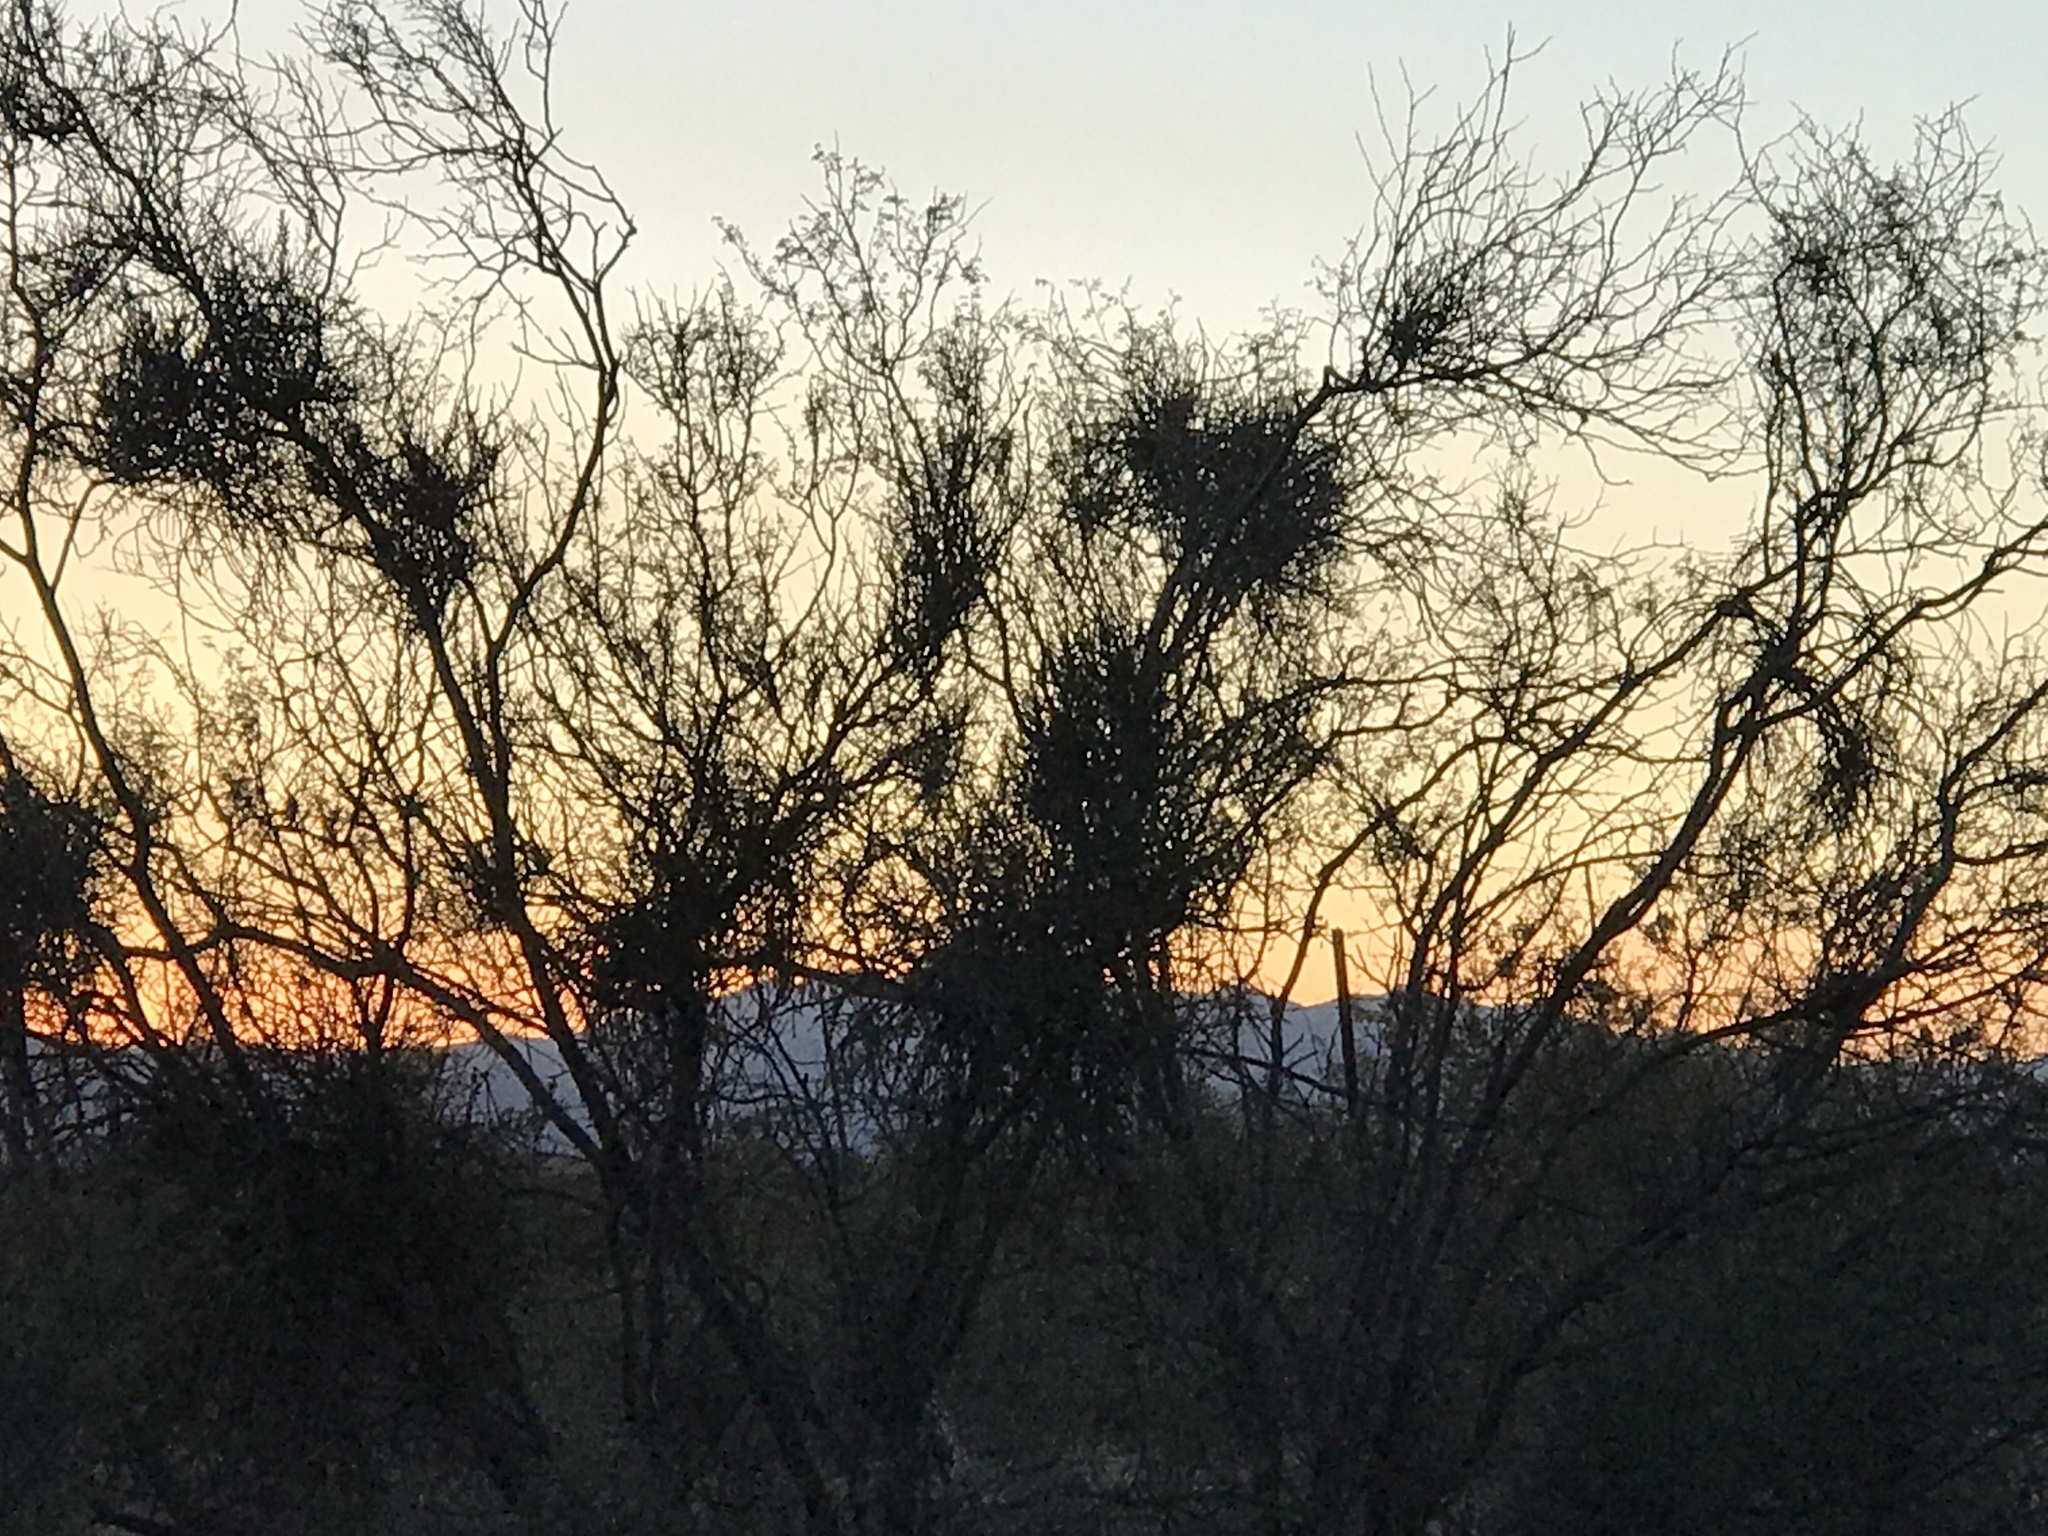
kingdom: Plantae
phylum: Tracheophyta
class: Magnoliopsida
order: Santalales
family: Viscaceae
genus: Phoradendron
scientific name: Phoradendron californicum
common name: Acacia mistletoe
